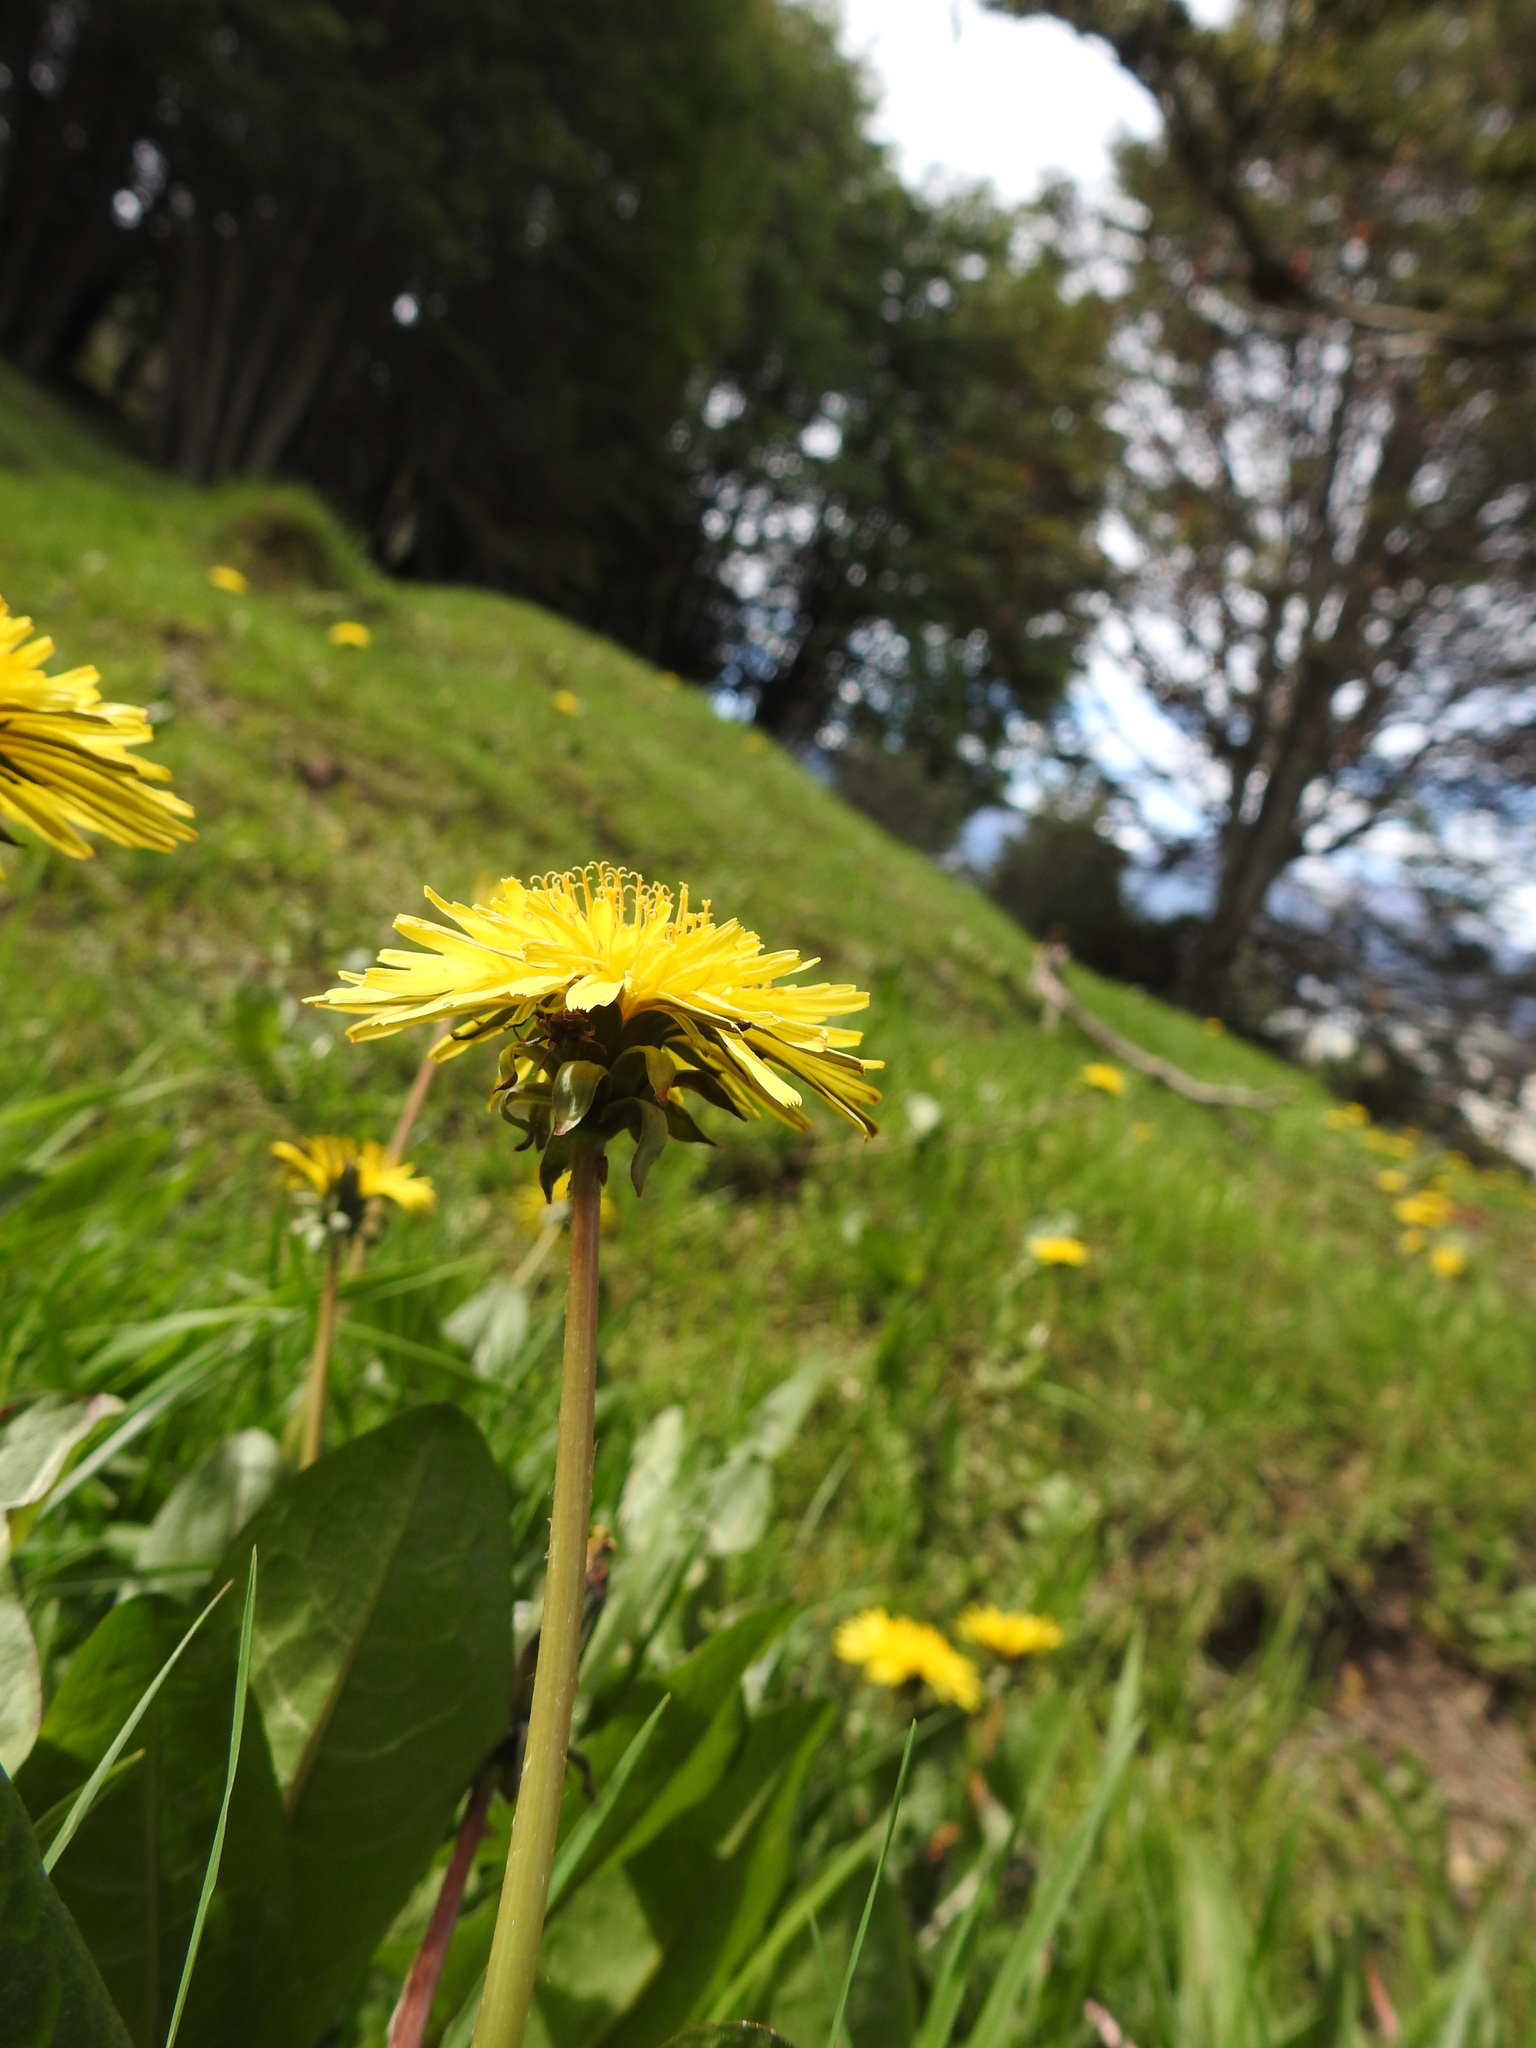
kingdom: Plantae
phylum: Tracheophyta
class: Magnoliopsida
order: Asterales
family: Asteraceae
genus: Taraxacum
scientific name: Taraxacum officinale
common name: Common dandelion
